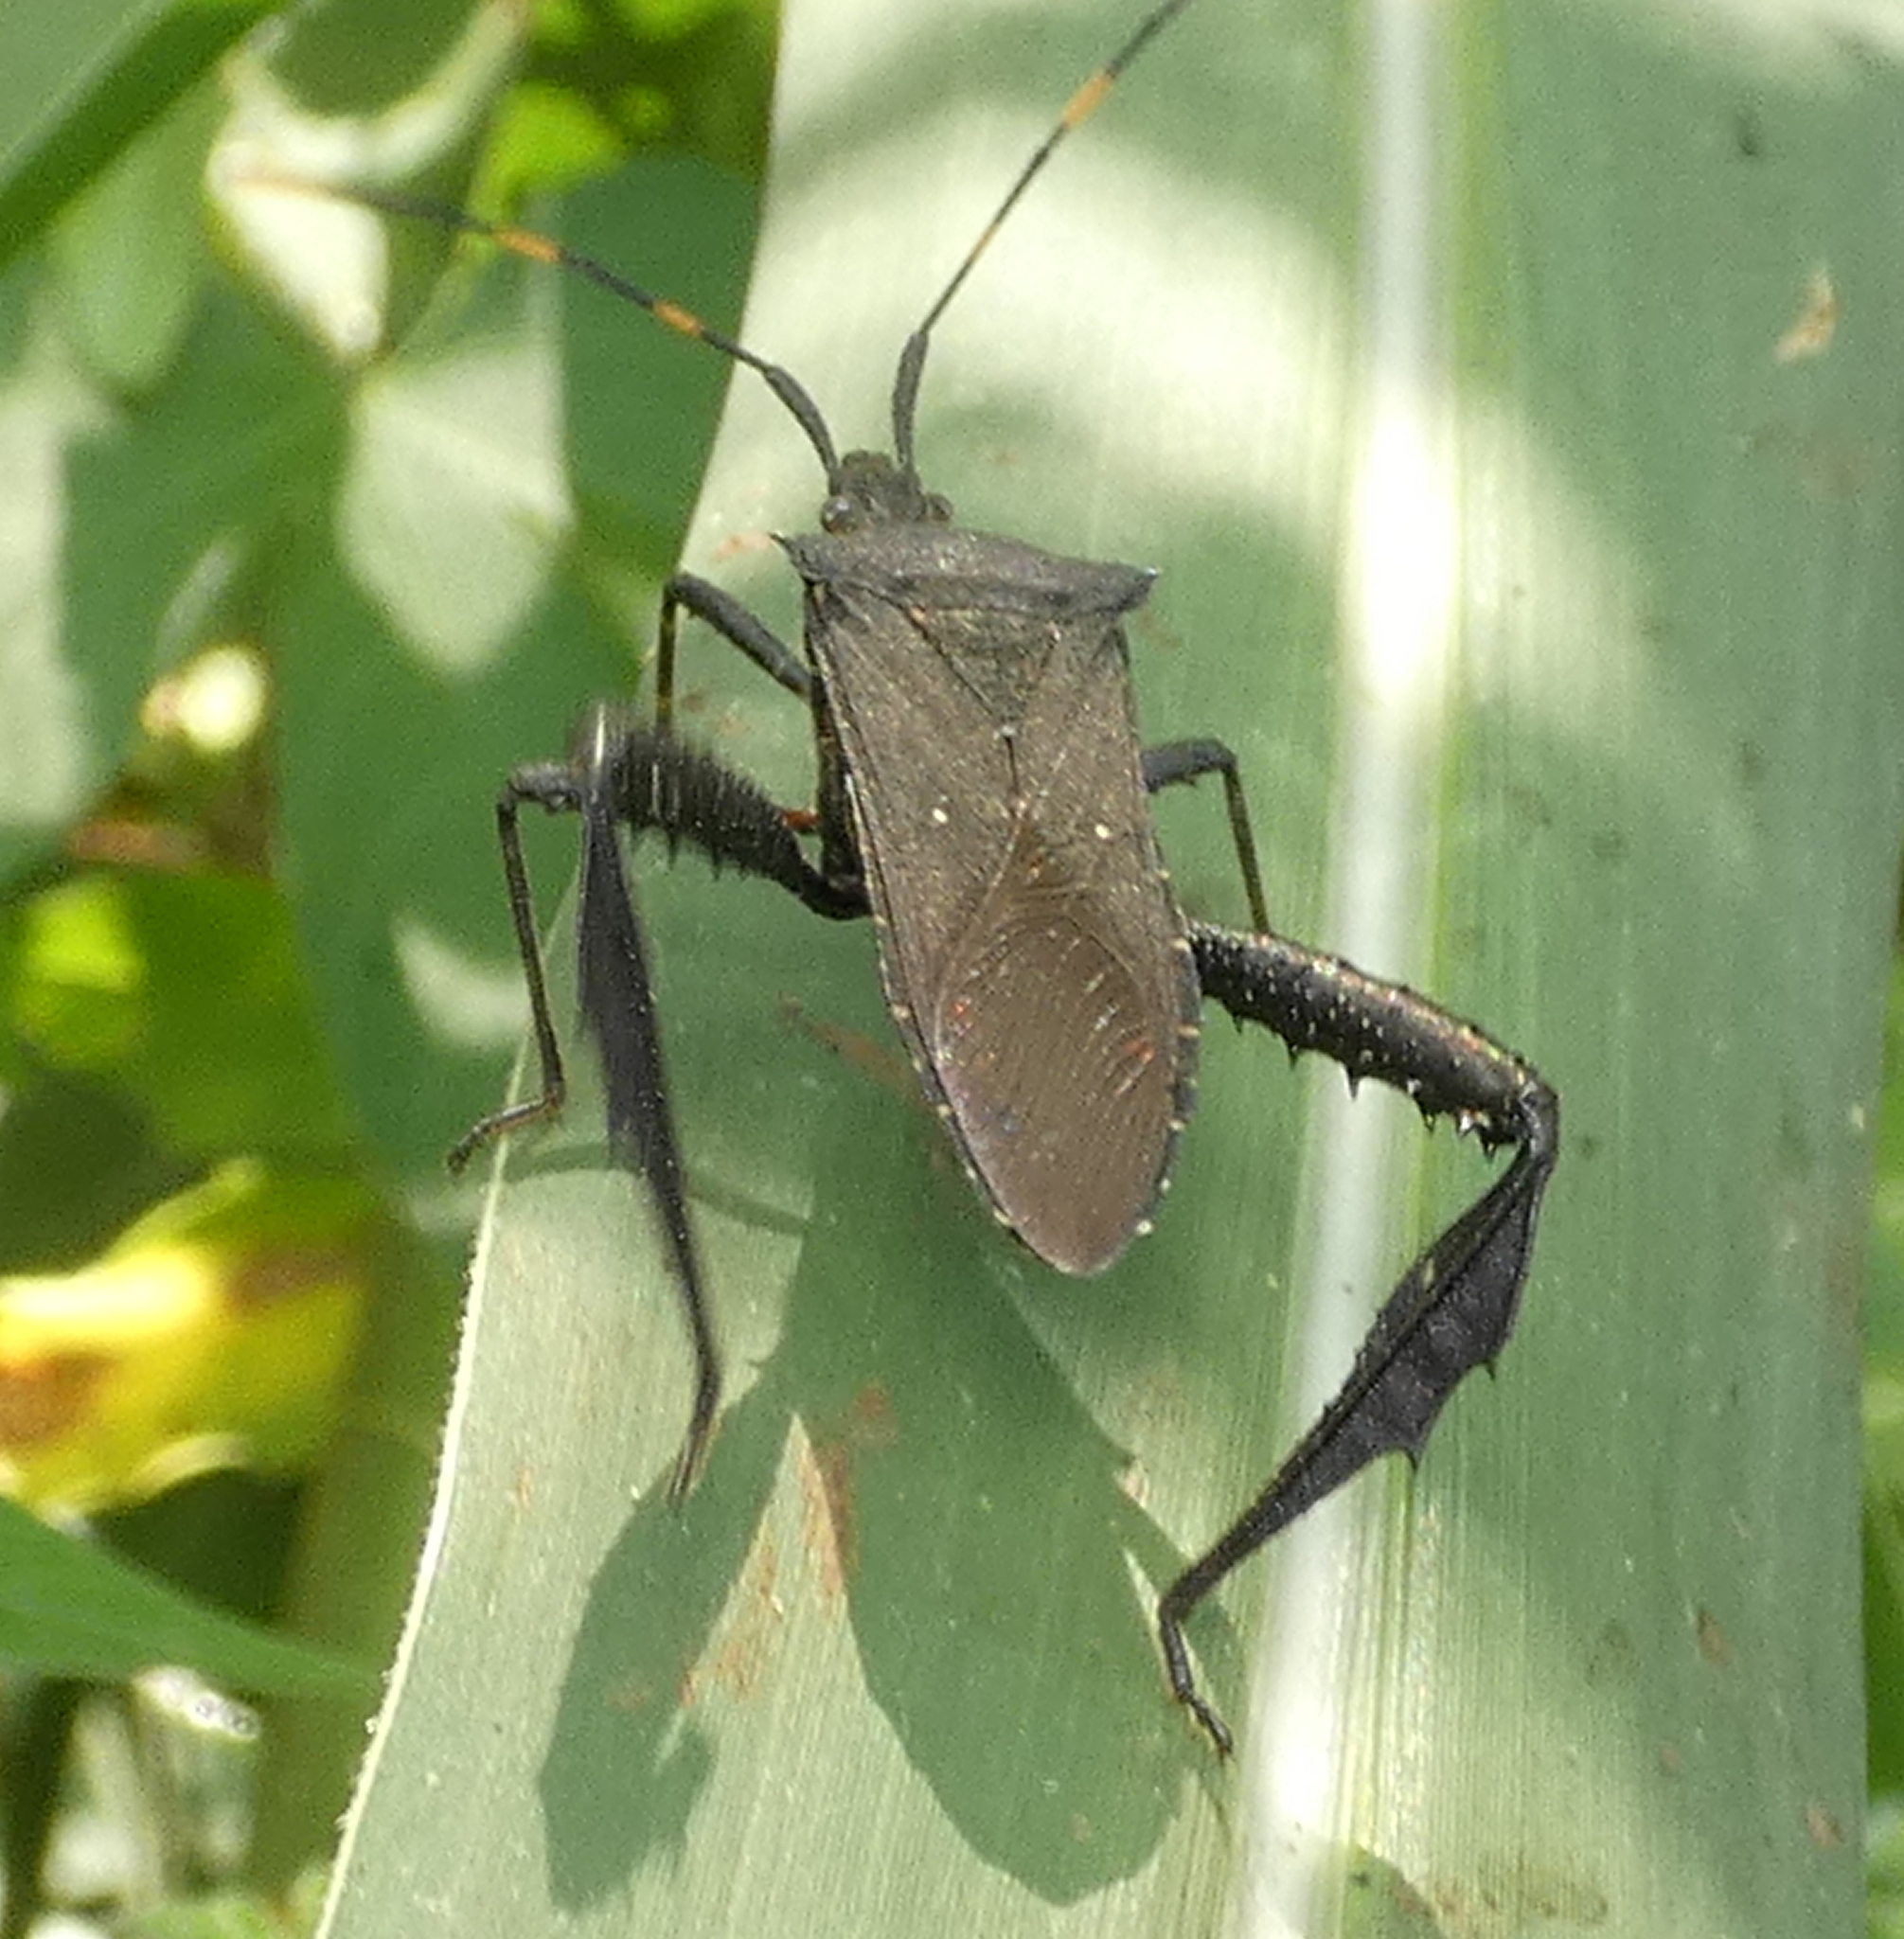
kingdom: Animalia
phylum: Arthropoda
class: Insecta
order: Hemiptera
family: Coreidae
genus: Leptoglossus
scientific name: Leptoglossus gonagra
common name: Citron bug
